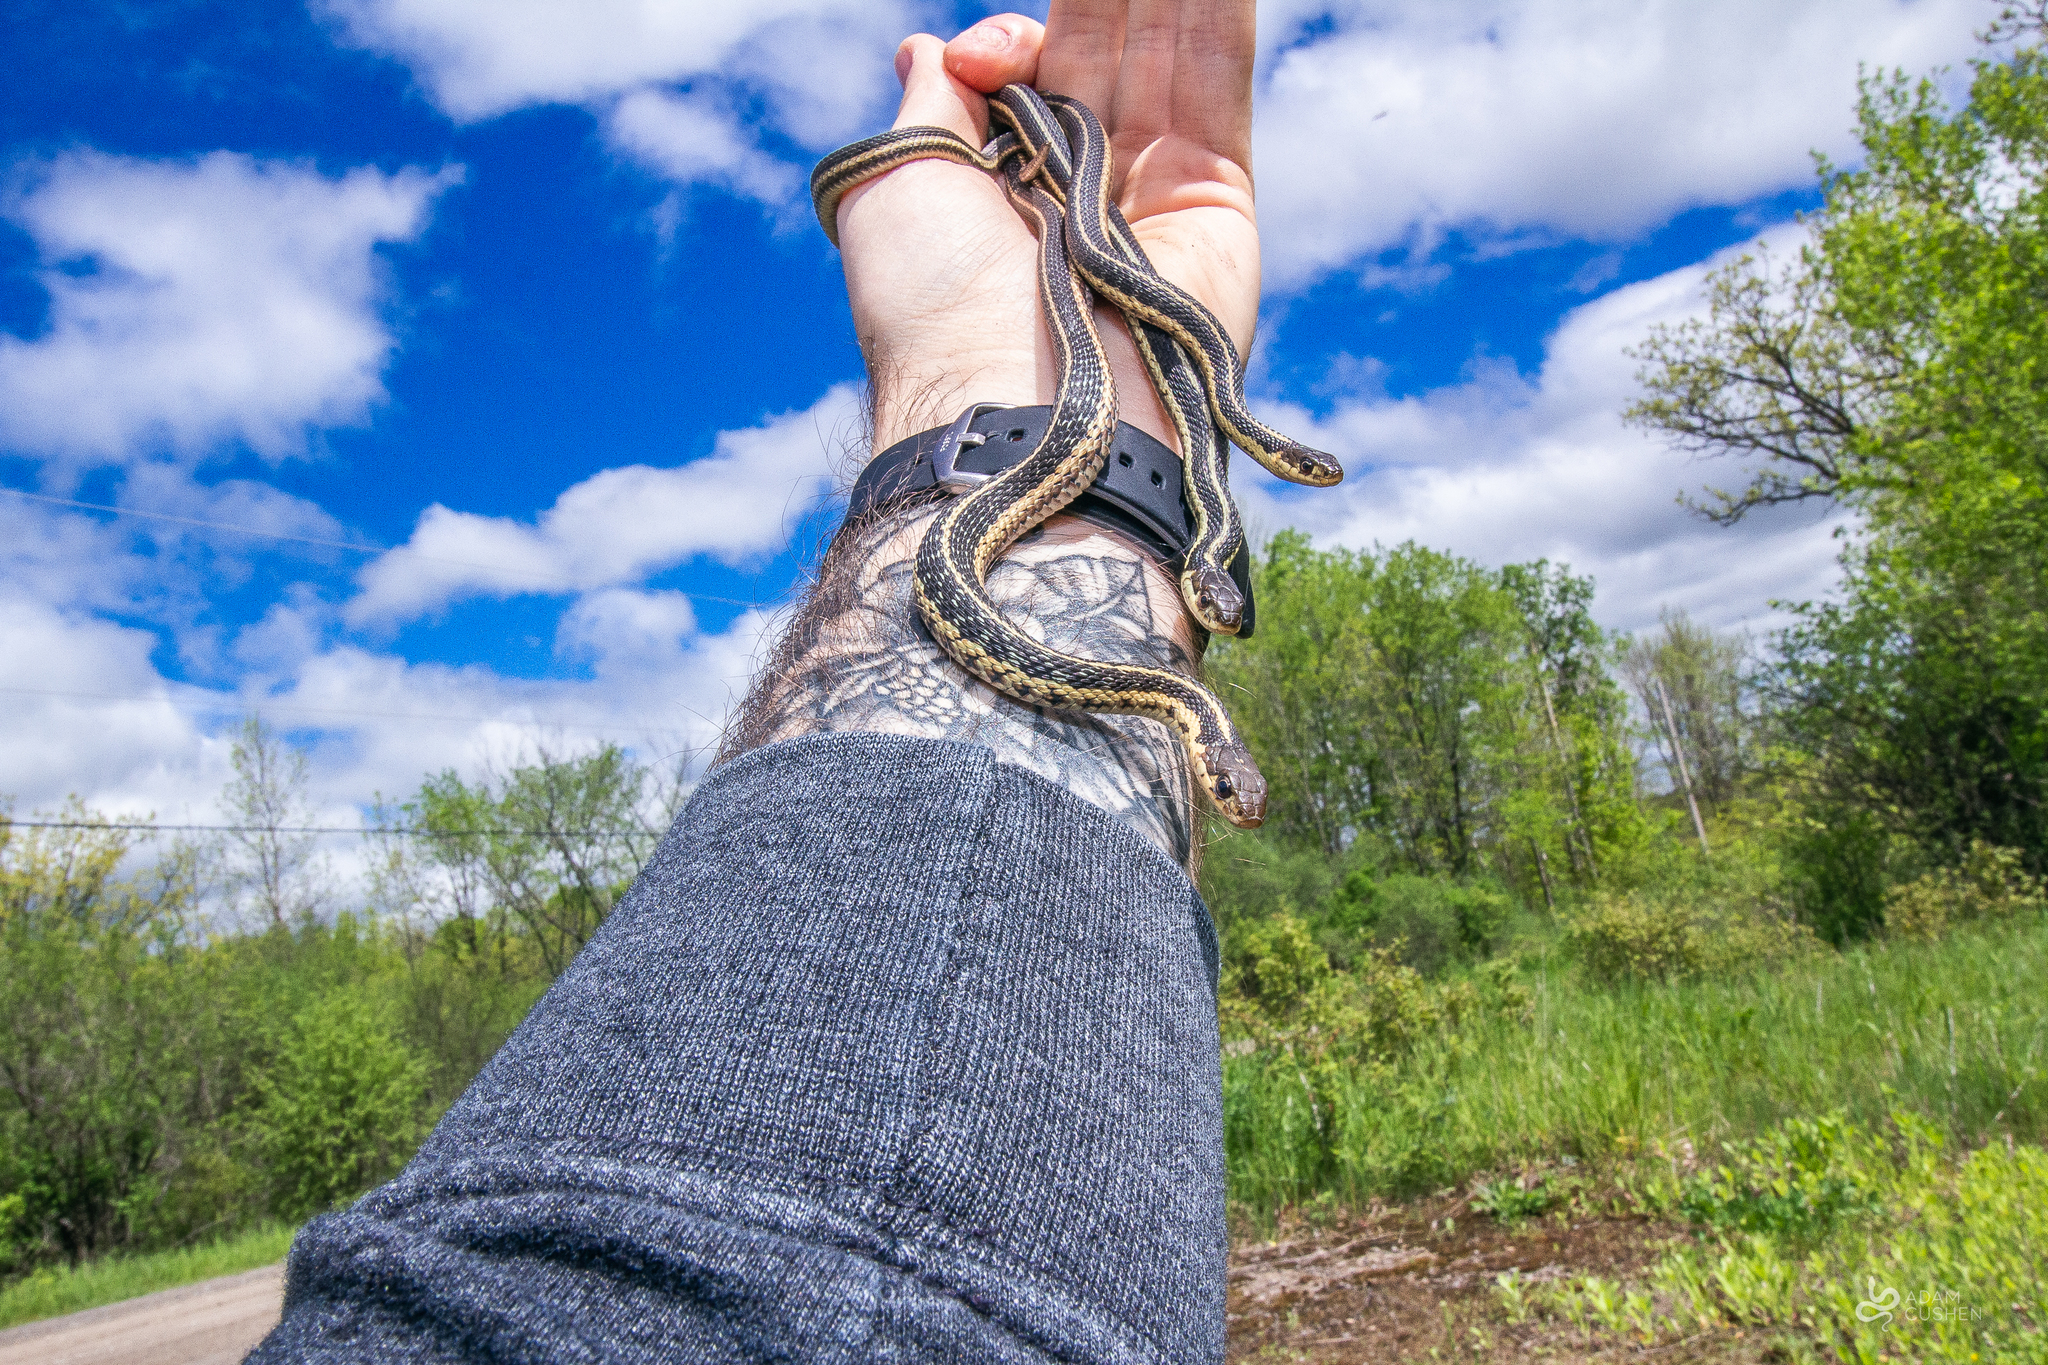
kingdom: Animalia
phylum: Chordata
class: Squamata
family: Colubridae
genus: Thamnophis
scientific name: Thamnophis sirtalis
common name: Common garter snake
